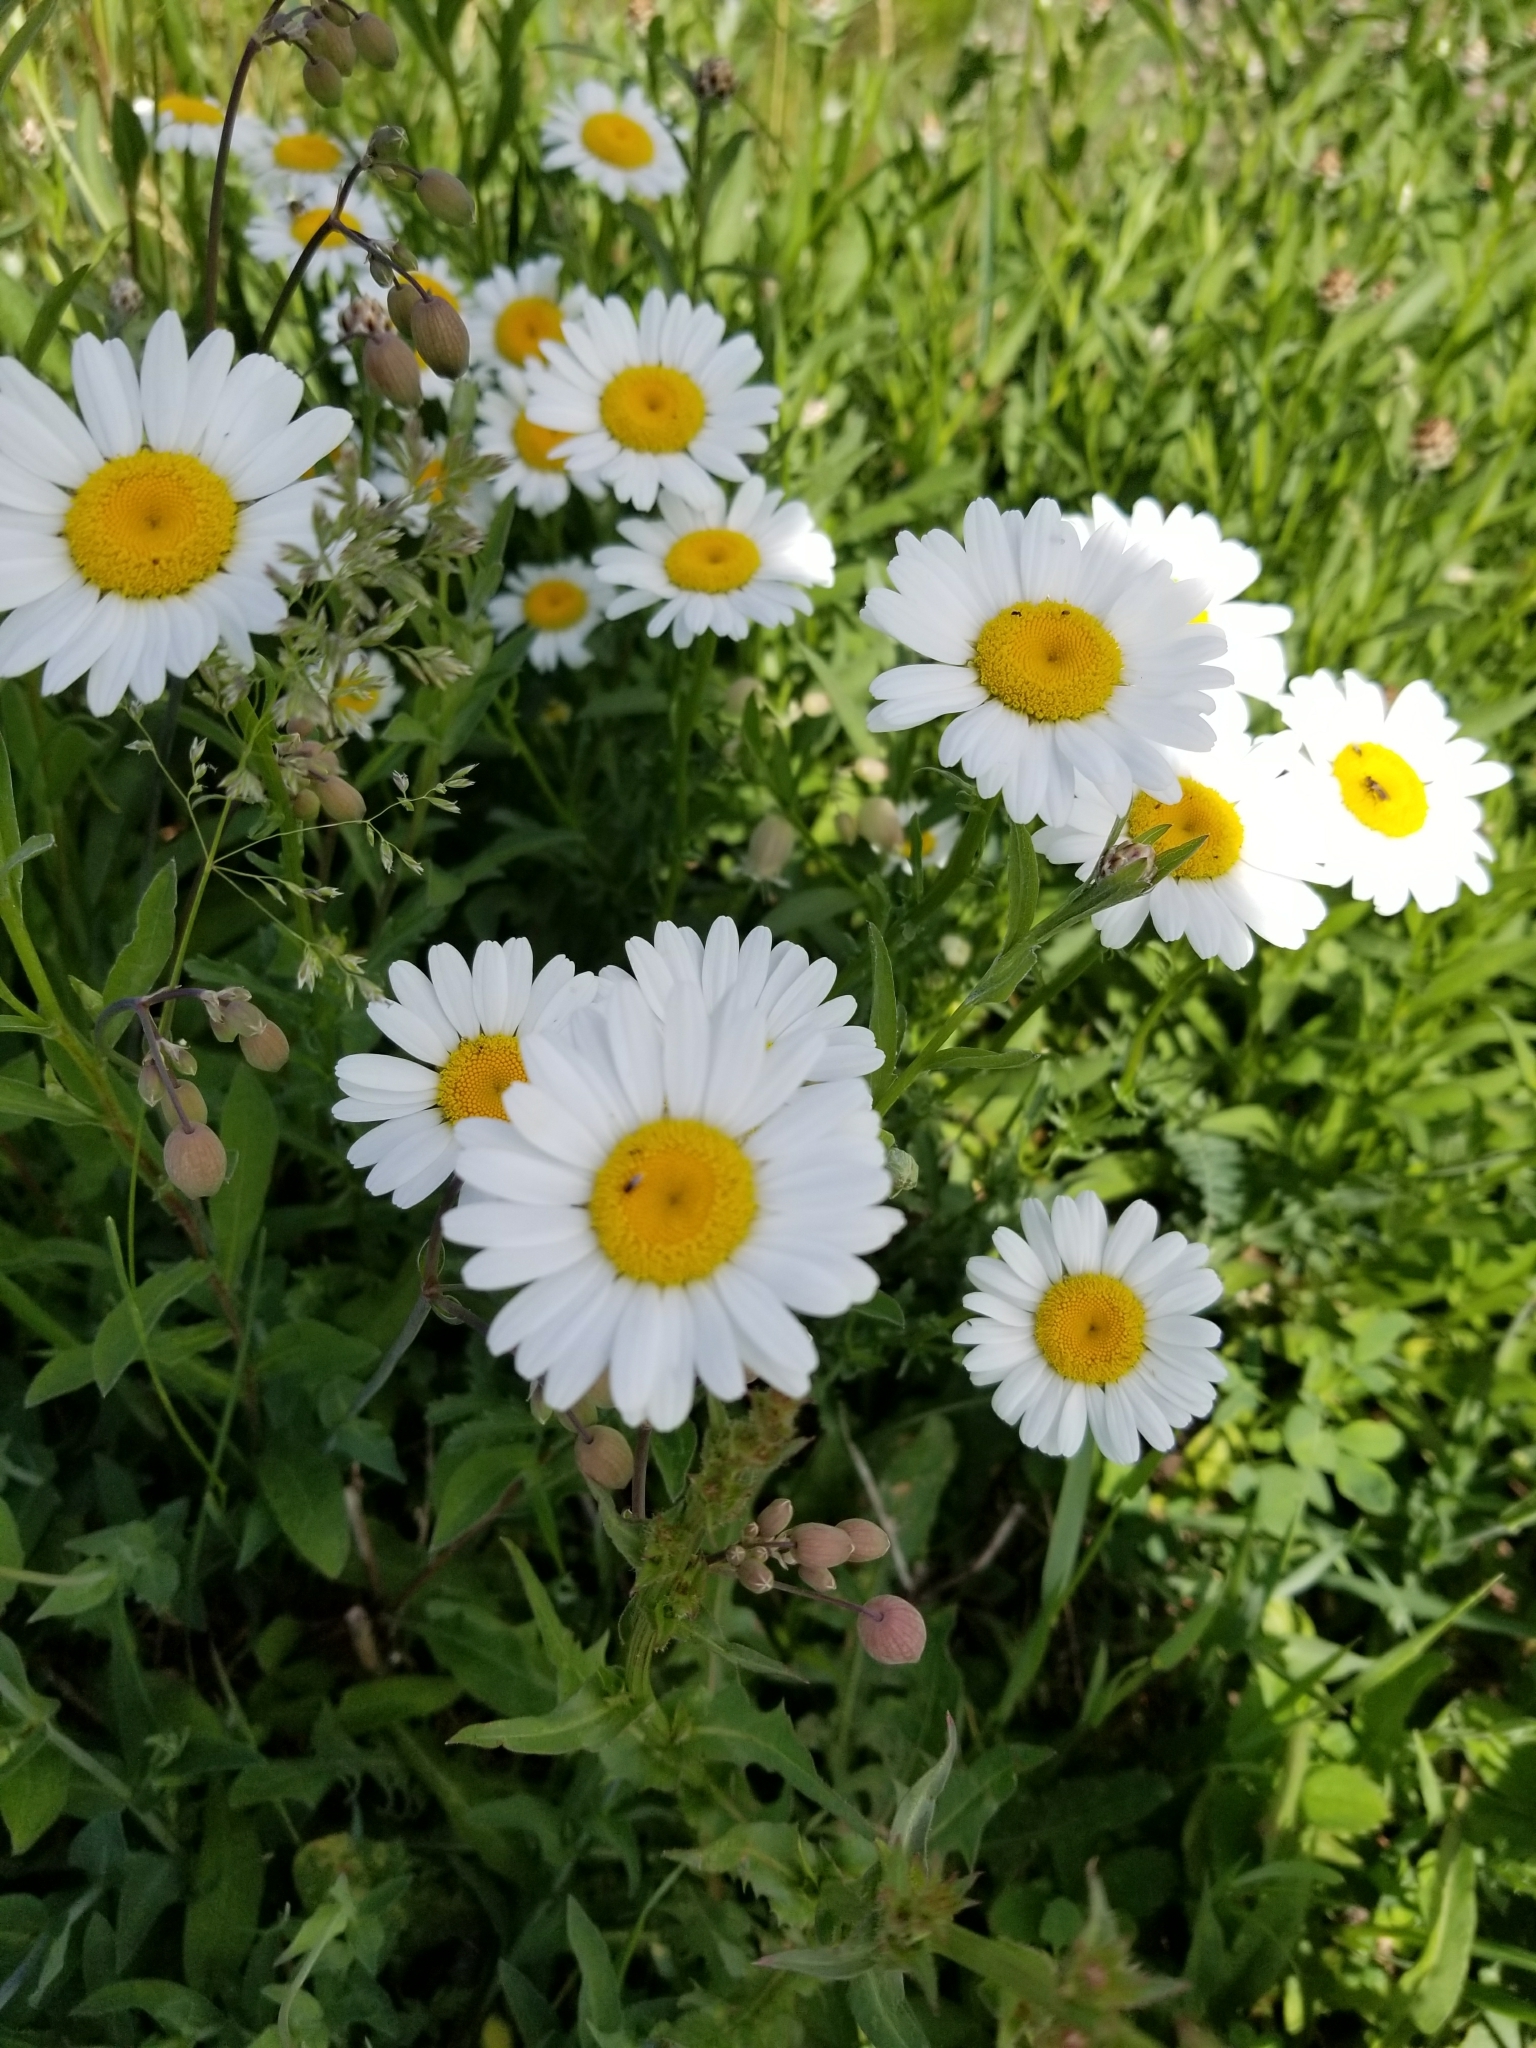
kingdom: Plantae
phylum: Tracheophyta
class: Magnoliopsida
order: Asterales
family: Asteraceae
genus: Leucanthemum
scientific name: Leucanthemum vulgare
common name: Oxeye daisy
